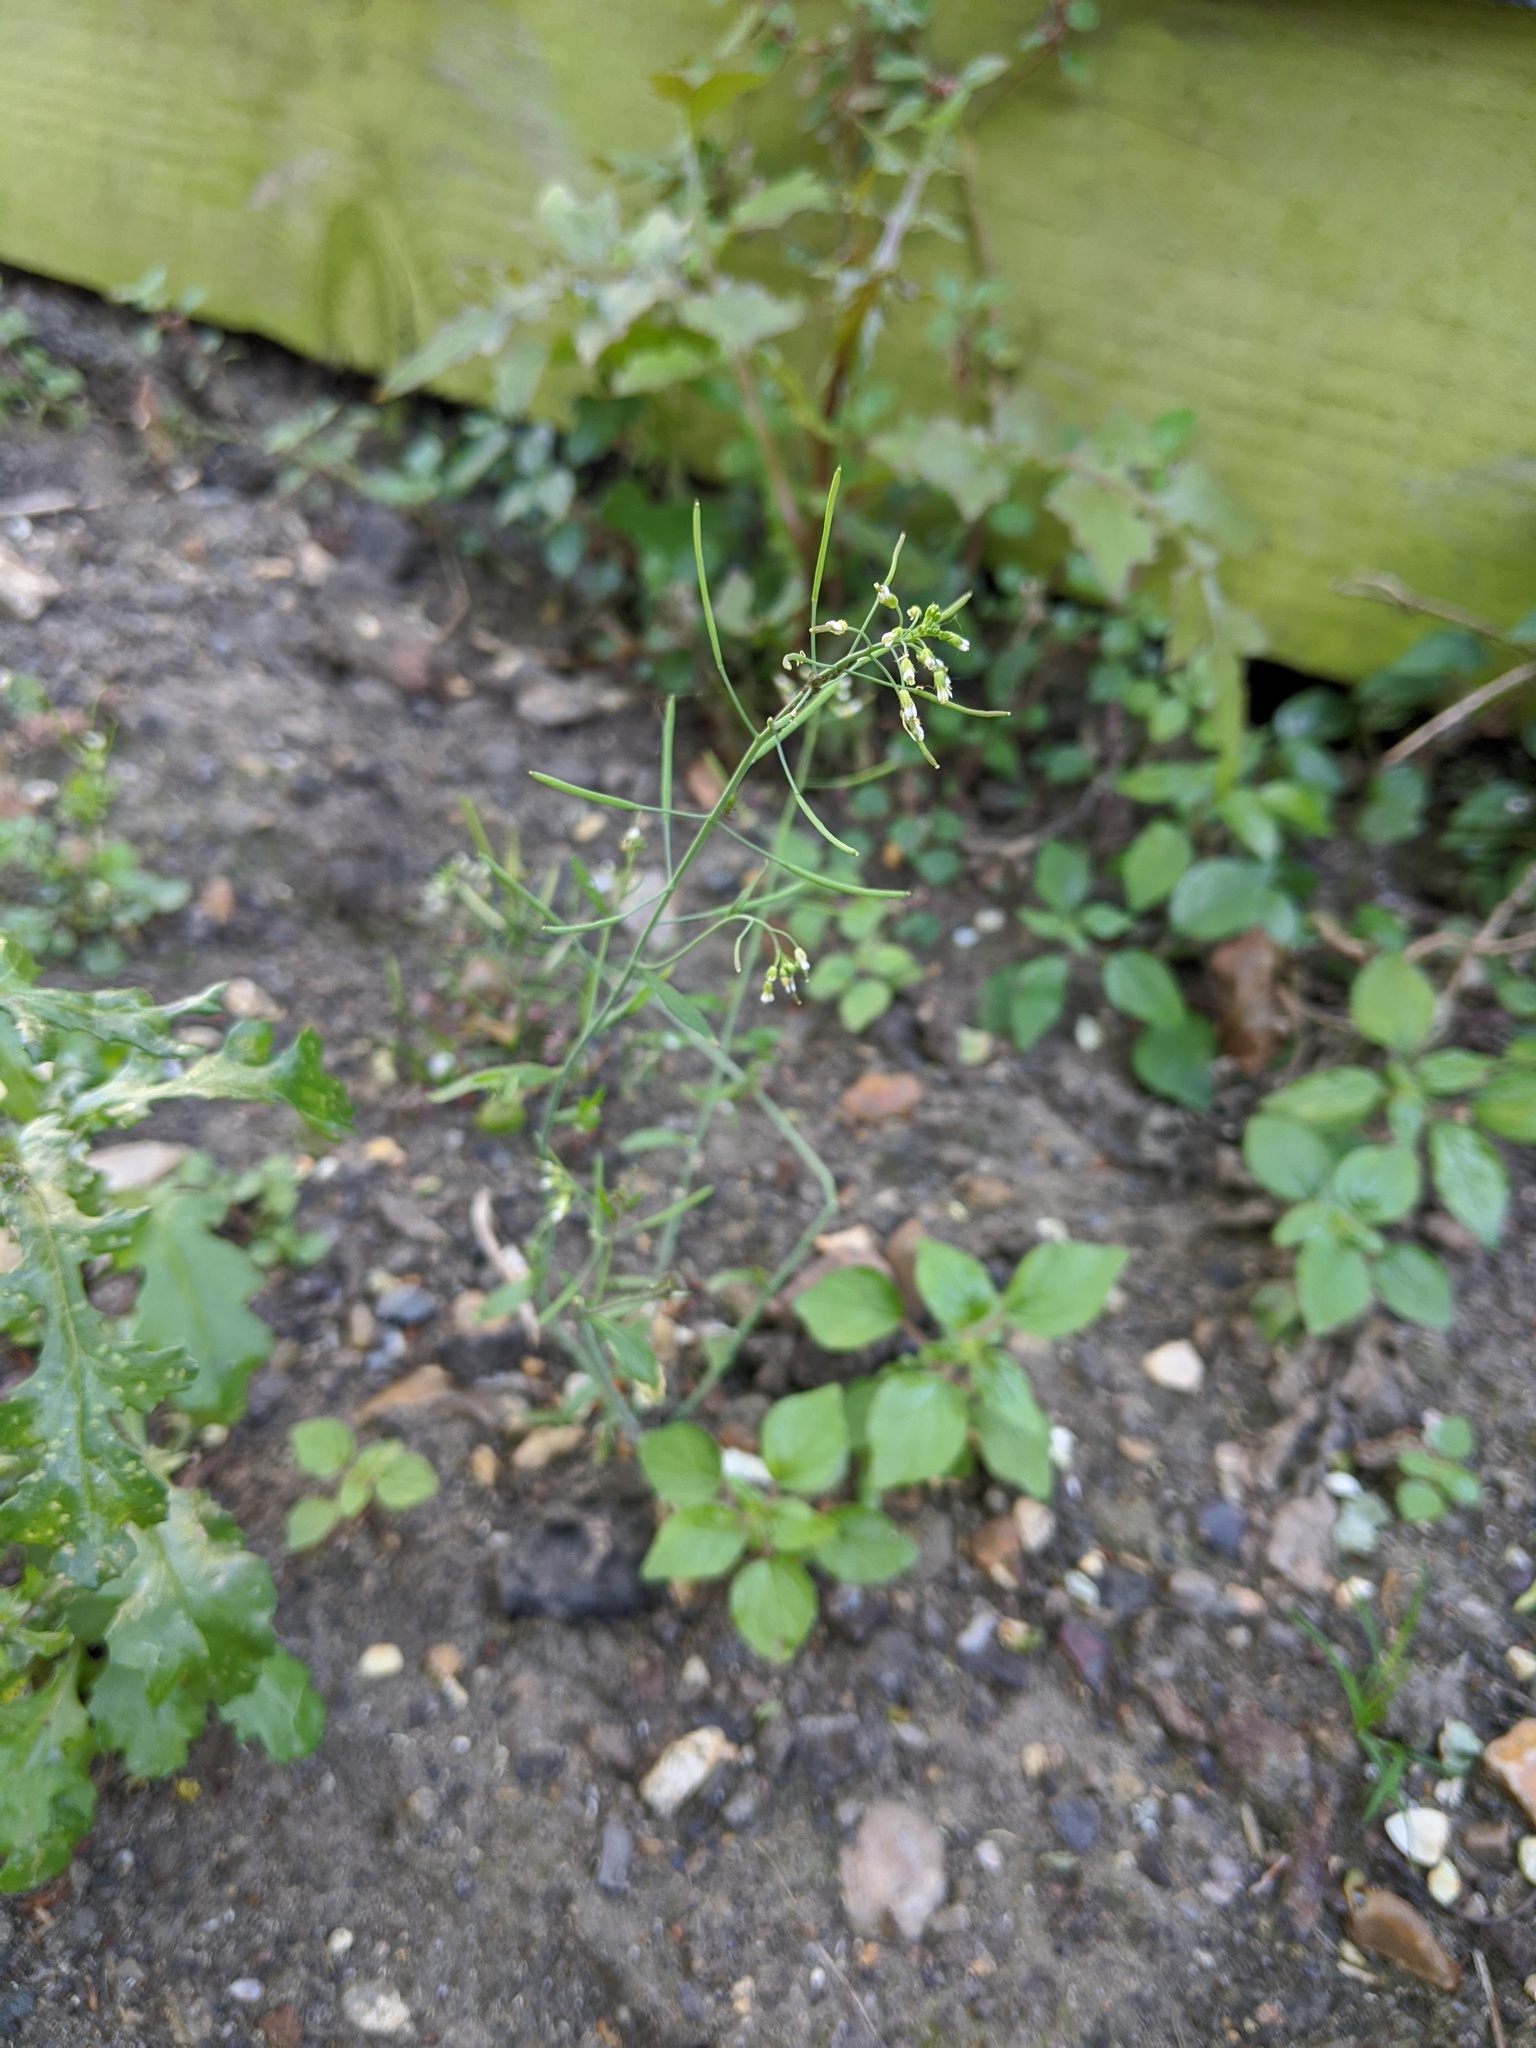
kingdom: Plantae
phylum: Tracheophyta
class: Magnoliopsida
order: Brassicales
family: Brassicaceae
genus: Arabidopsis
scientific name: Arabidopsis thaliana
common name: Thale cress
